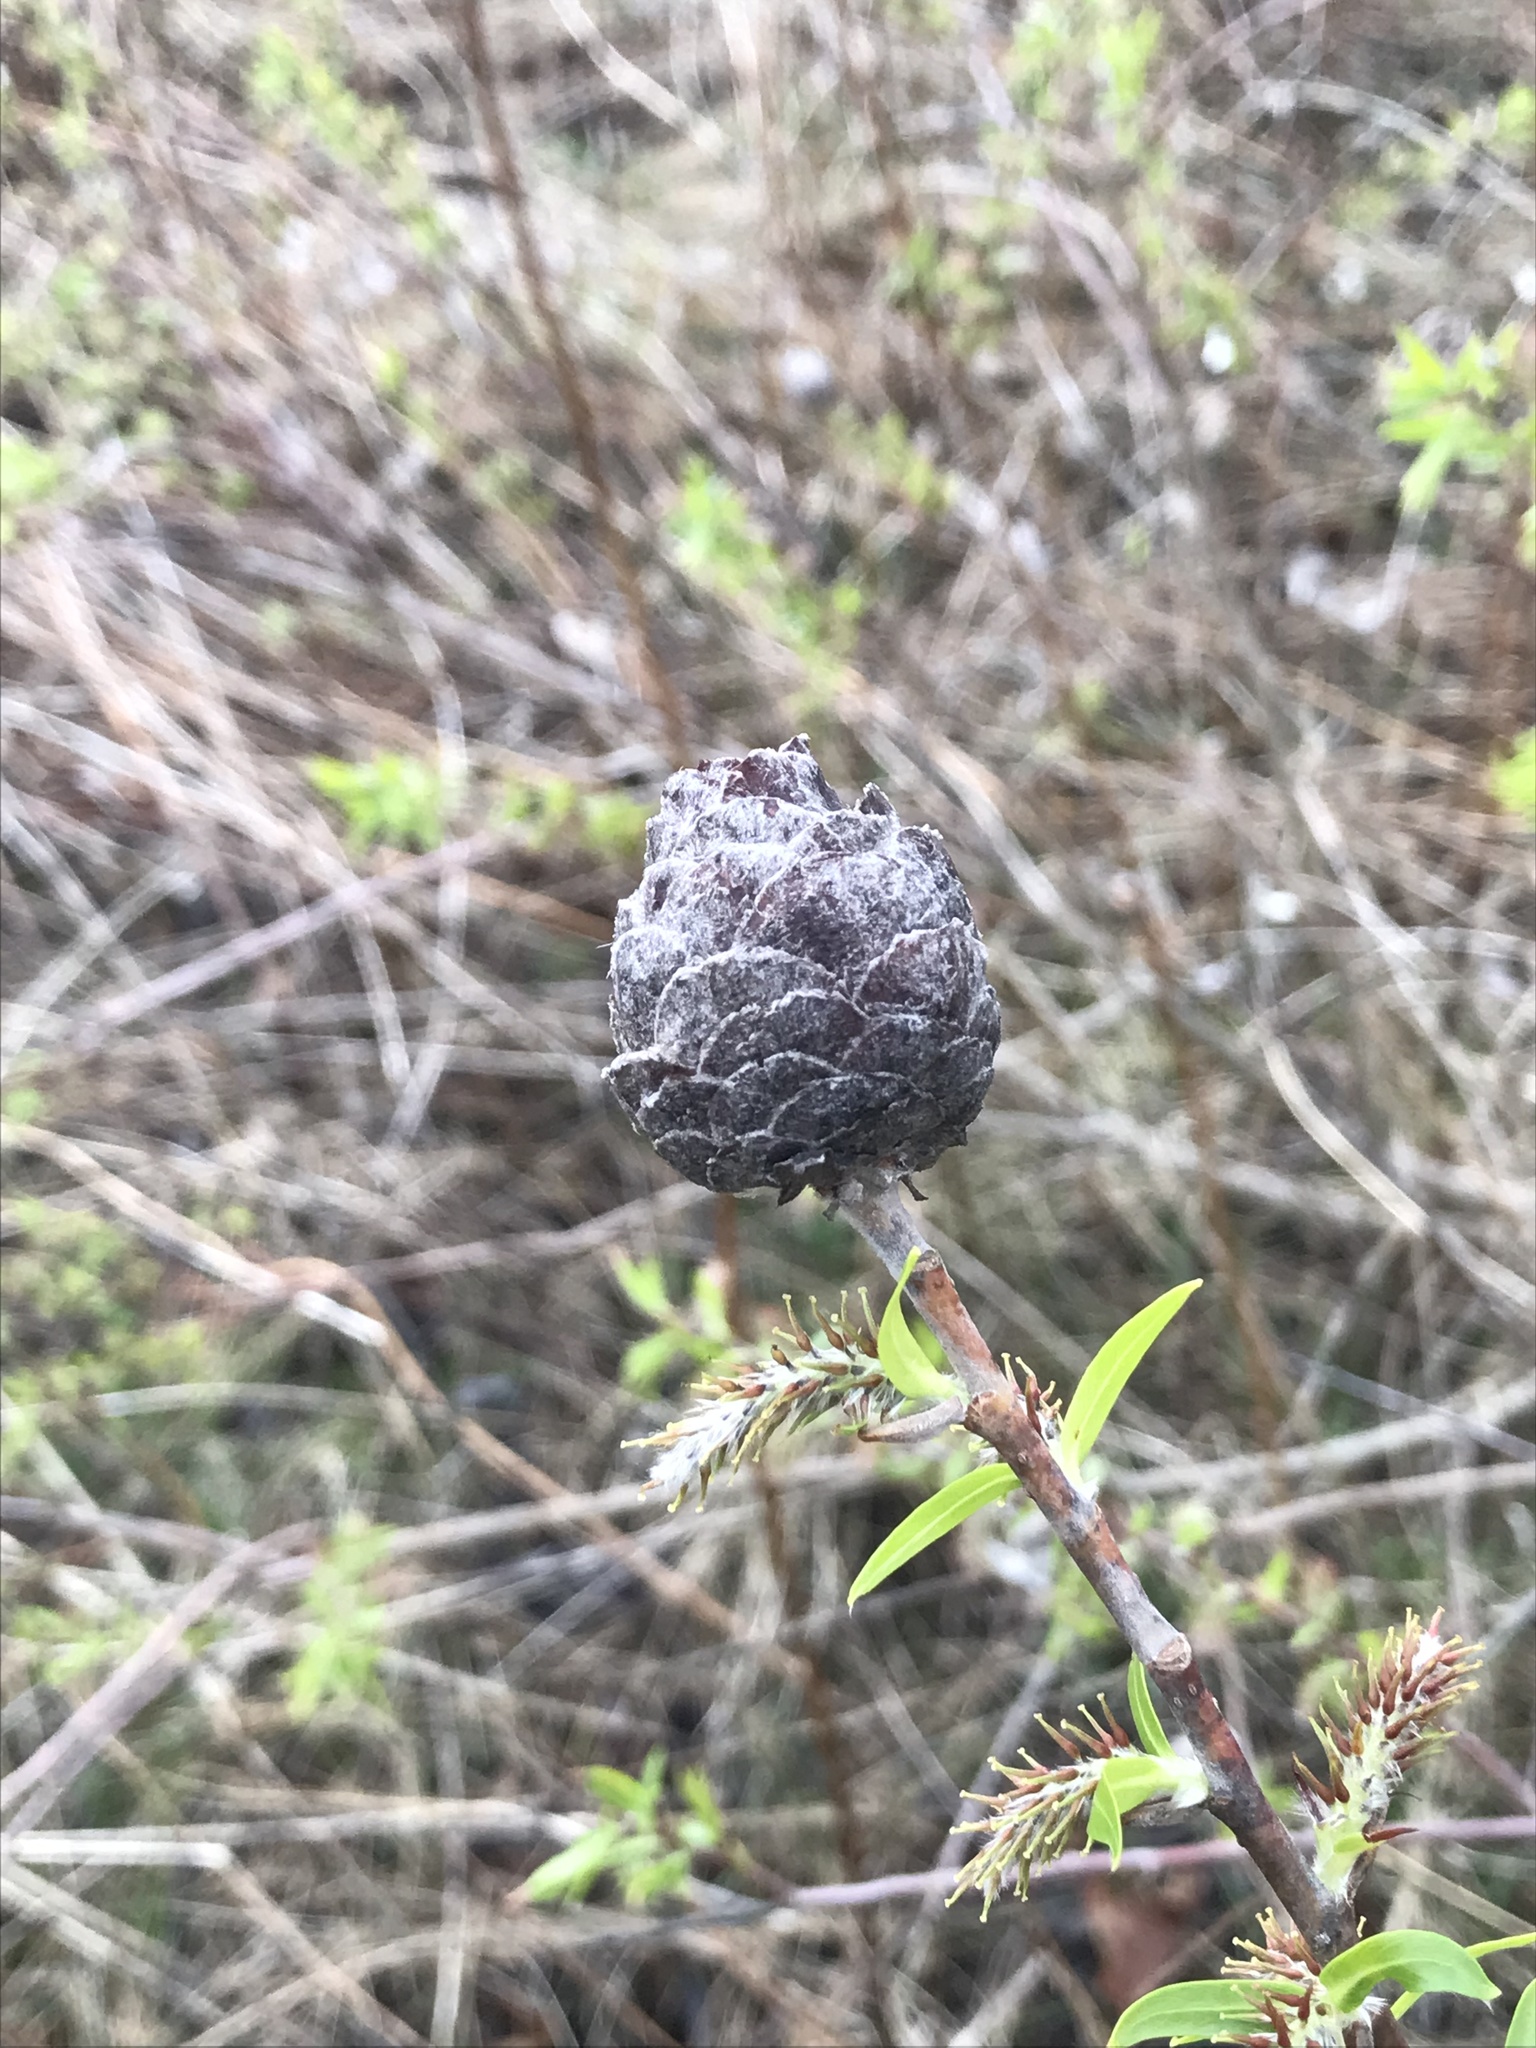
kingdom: Animalia
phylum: Arthropoda
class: Insecta
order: Diptera
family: Cecidomyiidae
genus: Rabdophaga
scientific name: Rabdophaga strobiloides
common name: Willow pinecone gall midge
